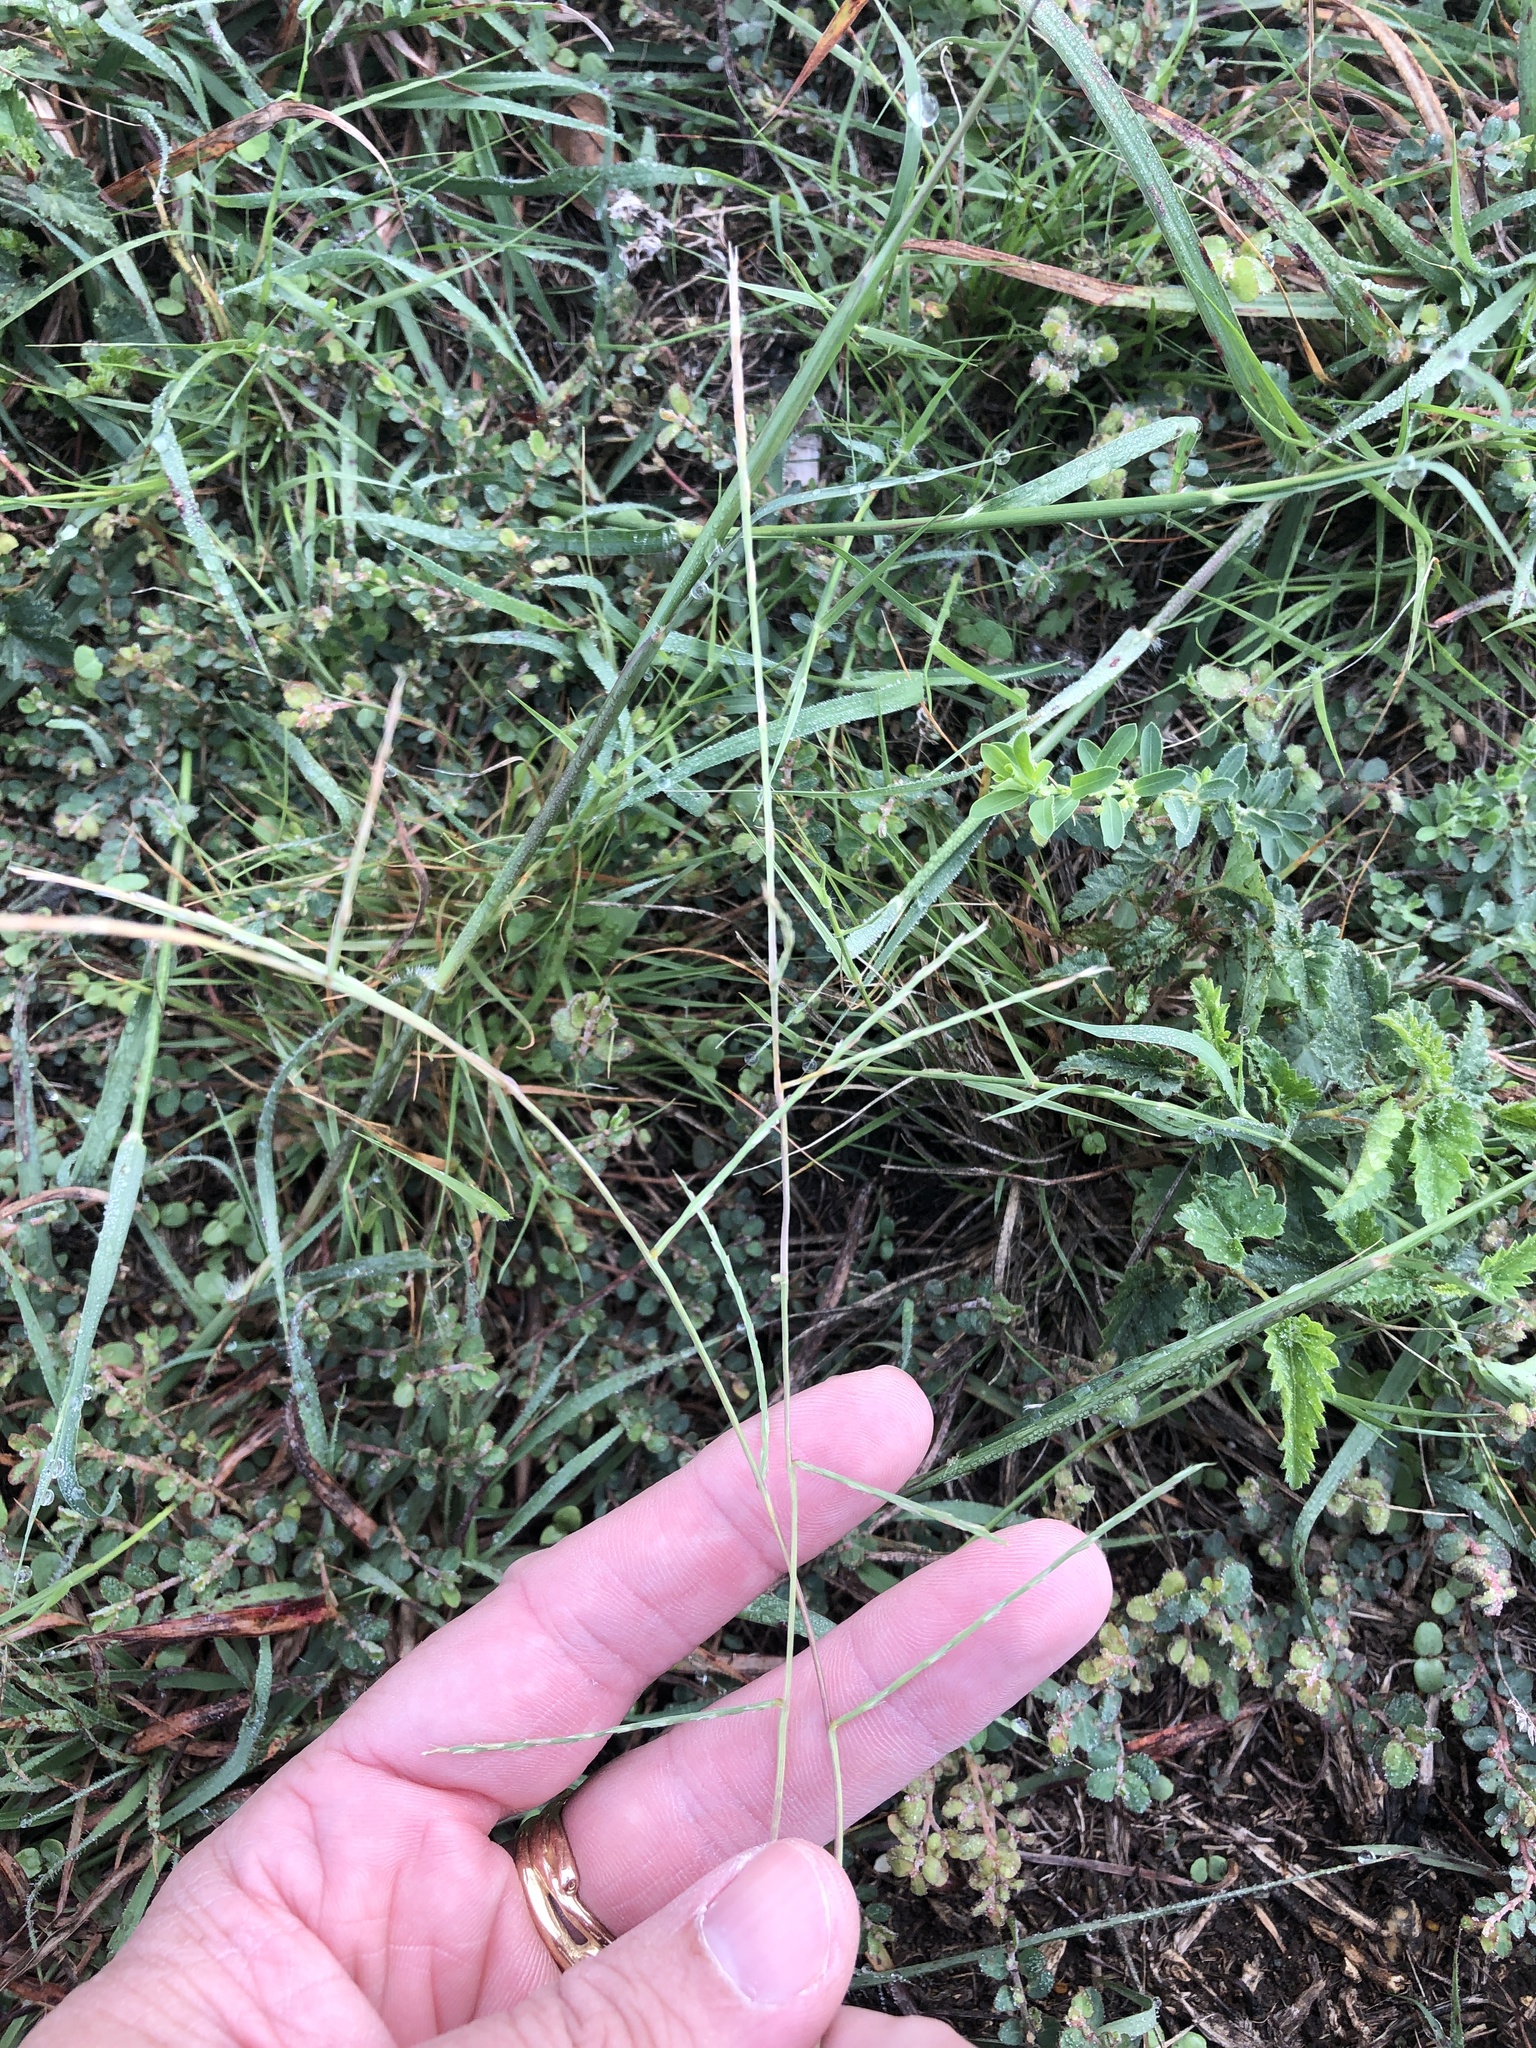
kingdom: Plantae
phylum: Tracheophyta
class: Liliopsida
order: Poales
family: Poaceae
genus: Muhlenbergia
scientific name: Muhlenbergia paniculata
